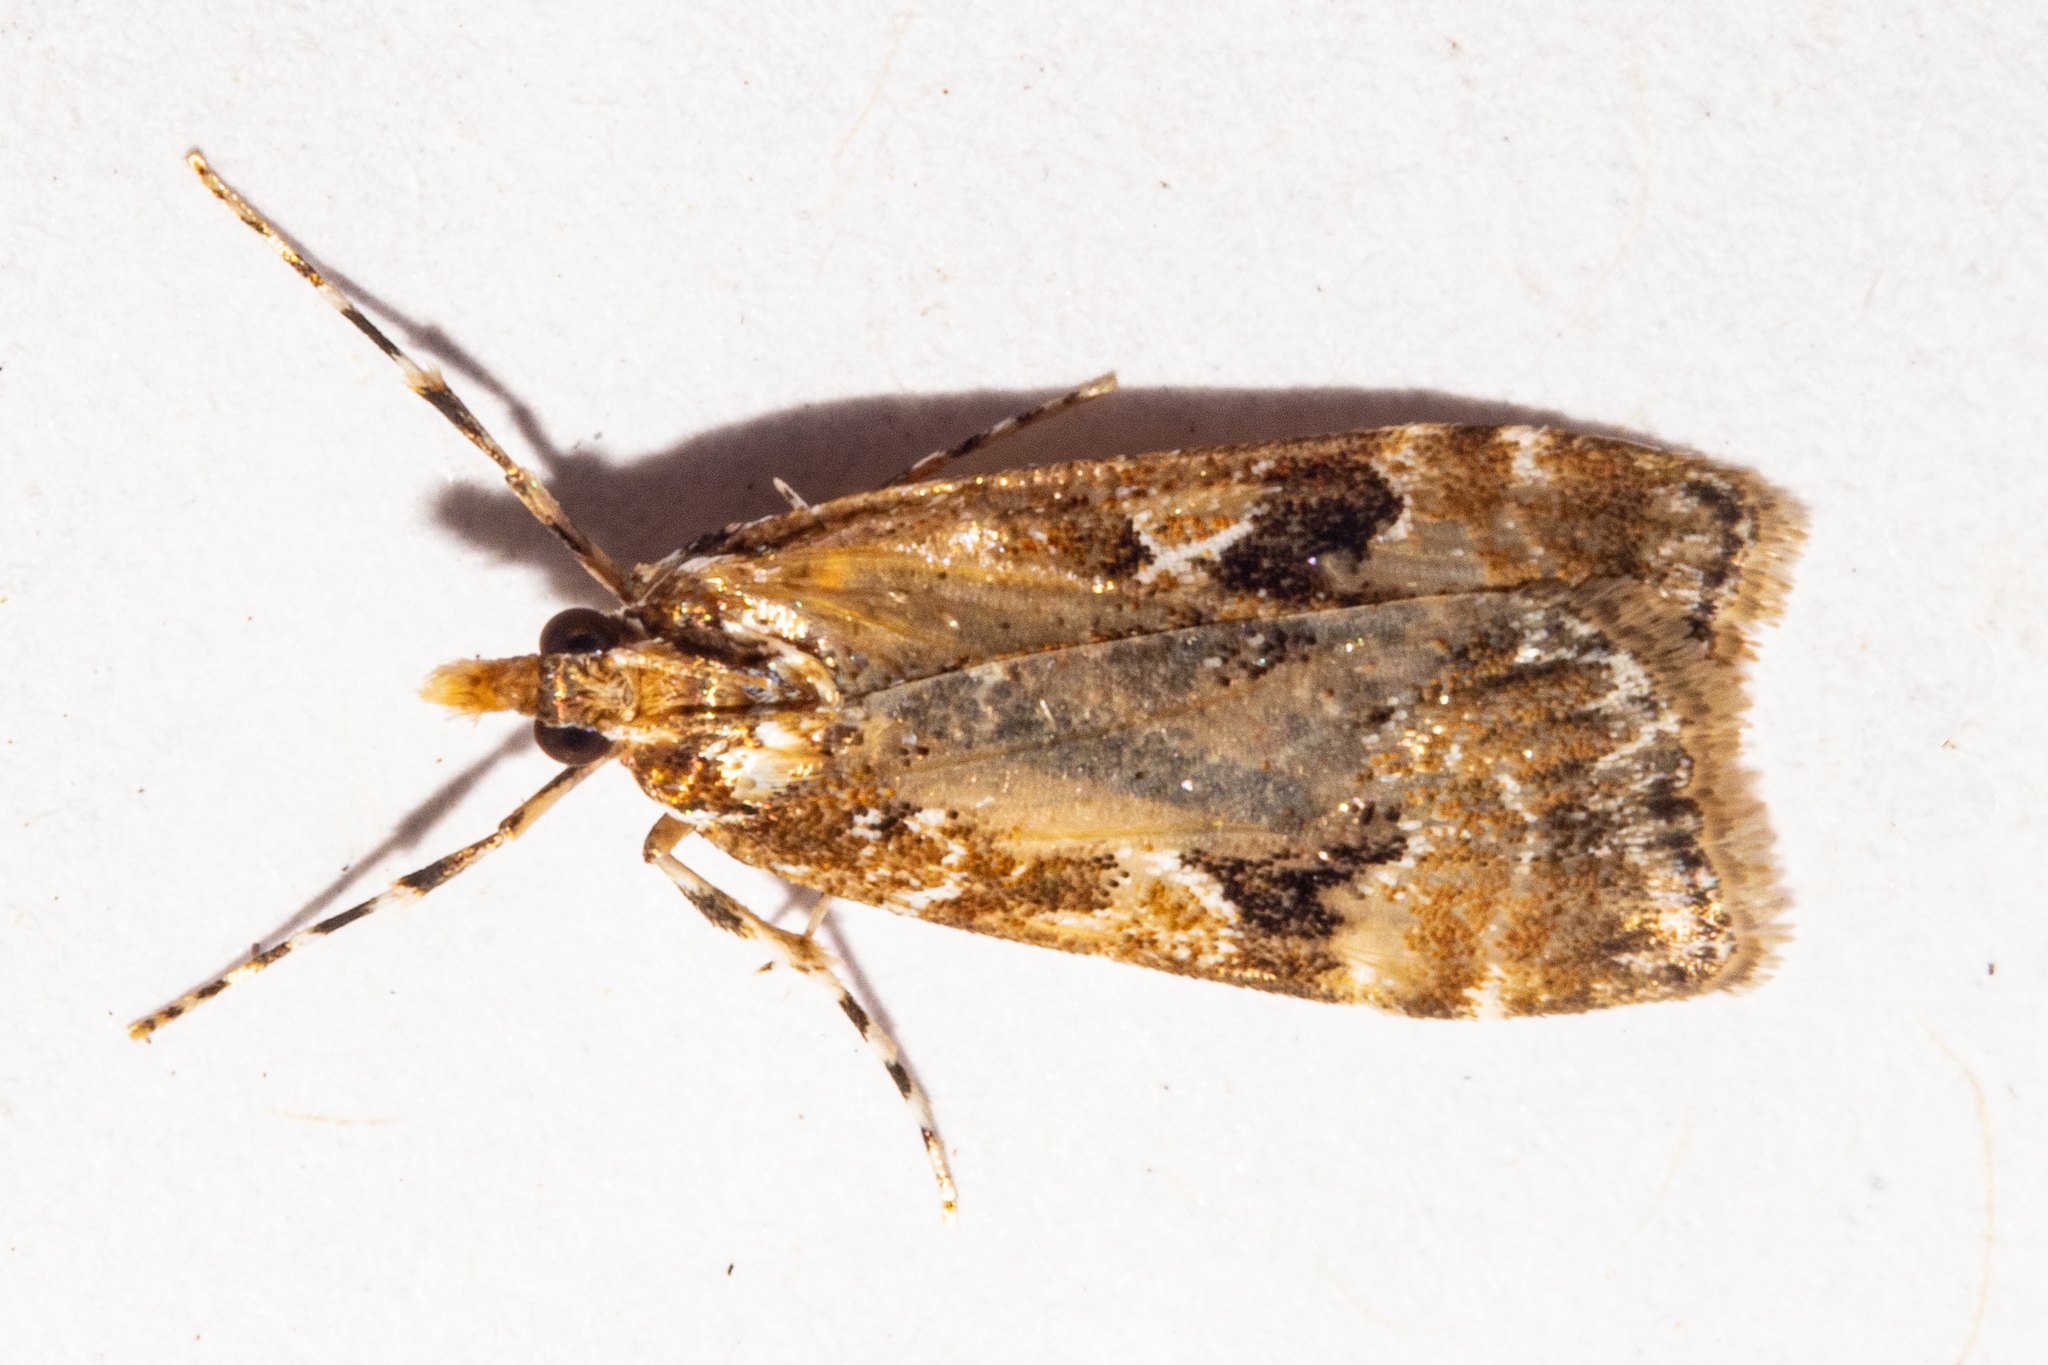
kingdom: Animalia
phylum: Arthropoda
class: Insecta
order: Lepidoptera
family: Crambidae
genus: Scoparia
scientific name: Scoparia ustimacula
